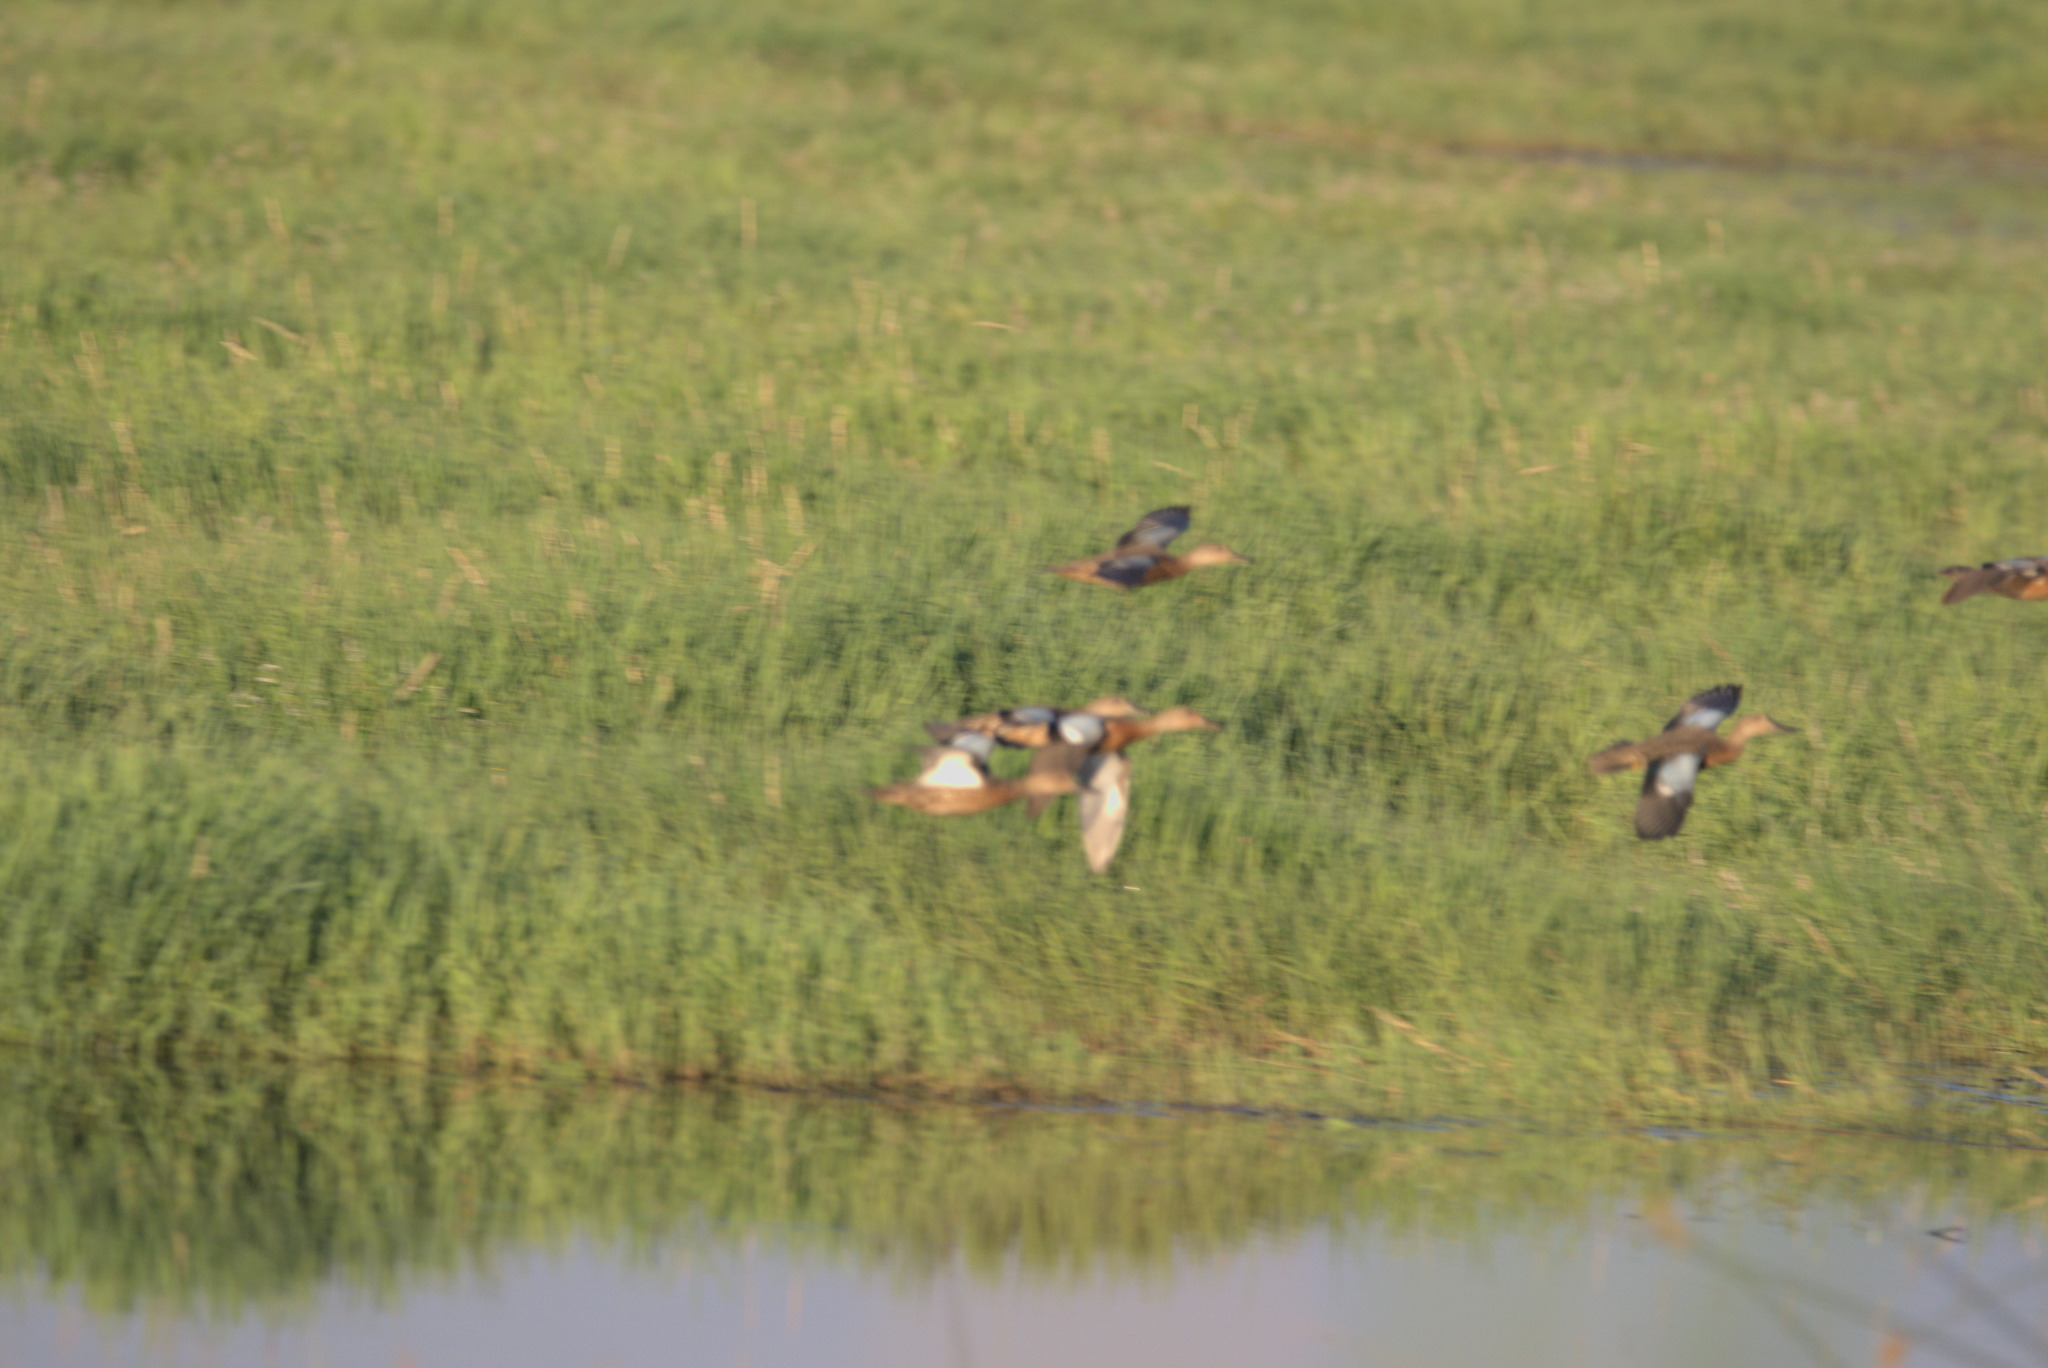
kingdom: Animalia
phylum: Chordata
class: Aves
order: Anseriformes
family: Anatidae
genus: Spatula
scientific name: Spatula cyanoptera
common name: Cinnamon teal
